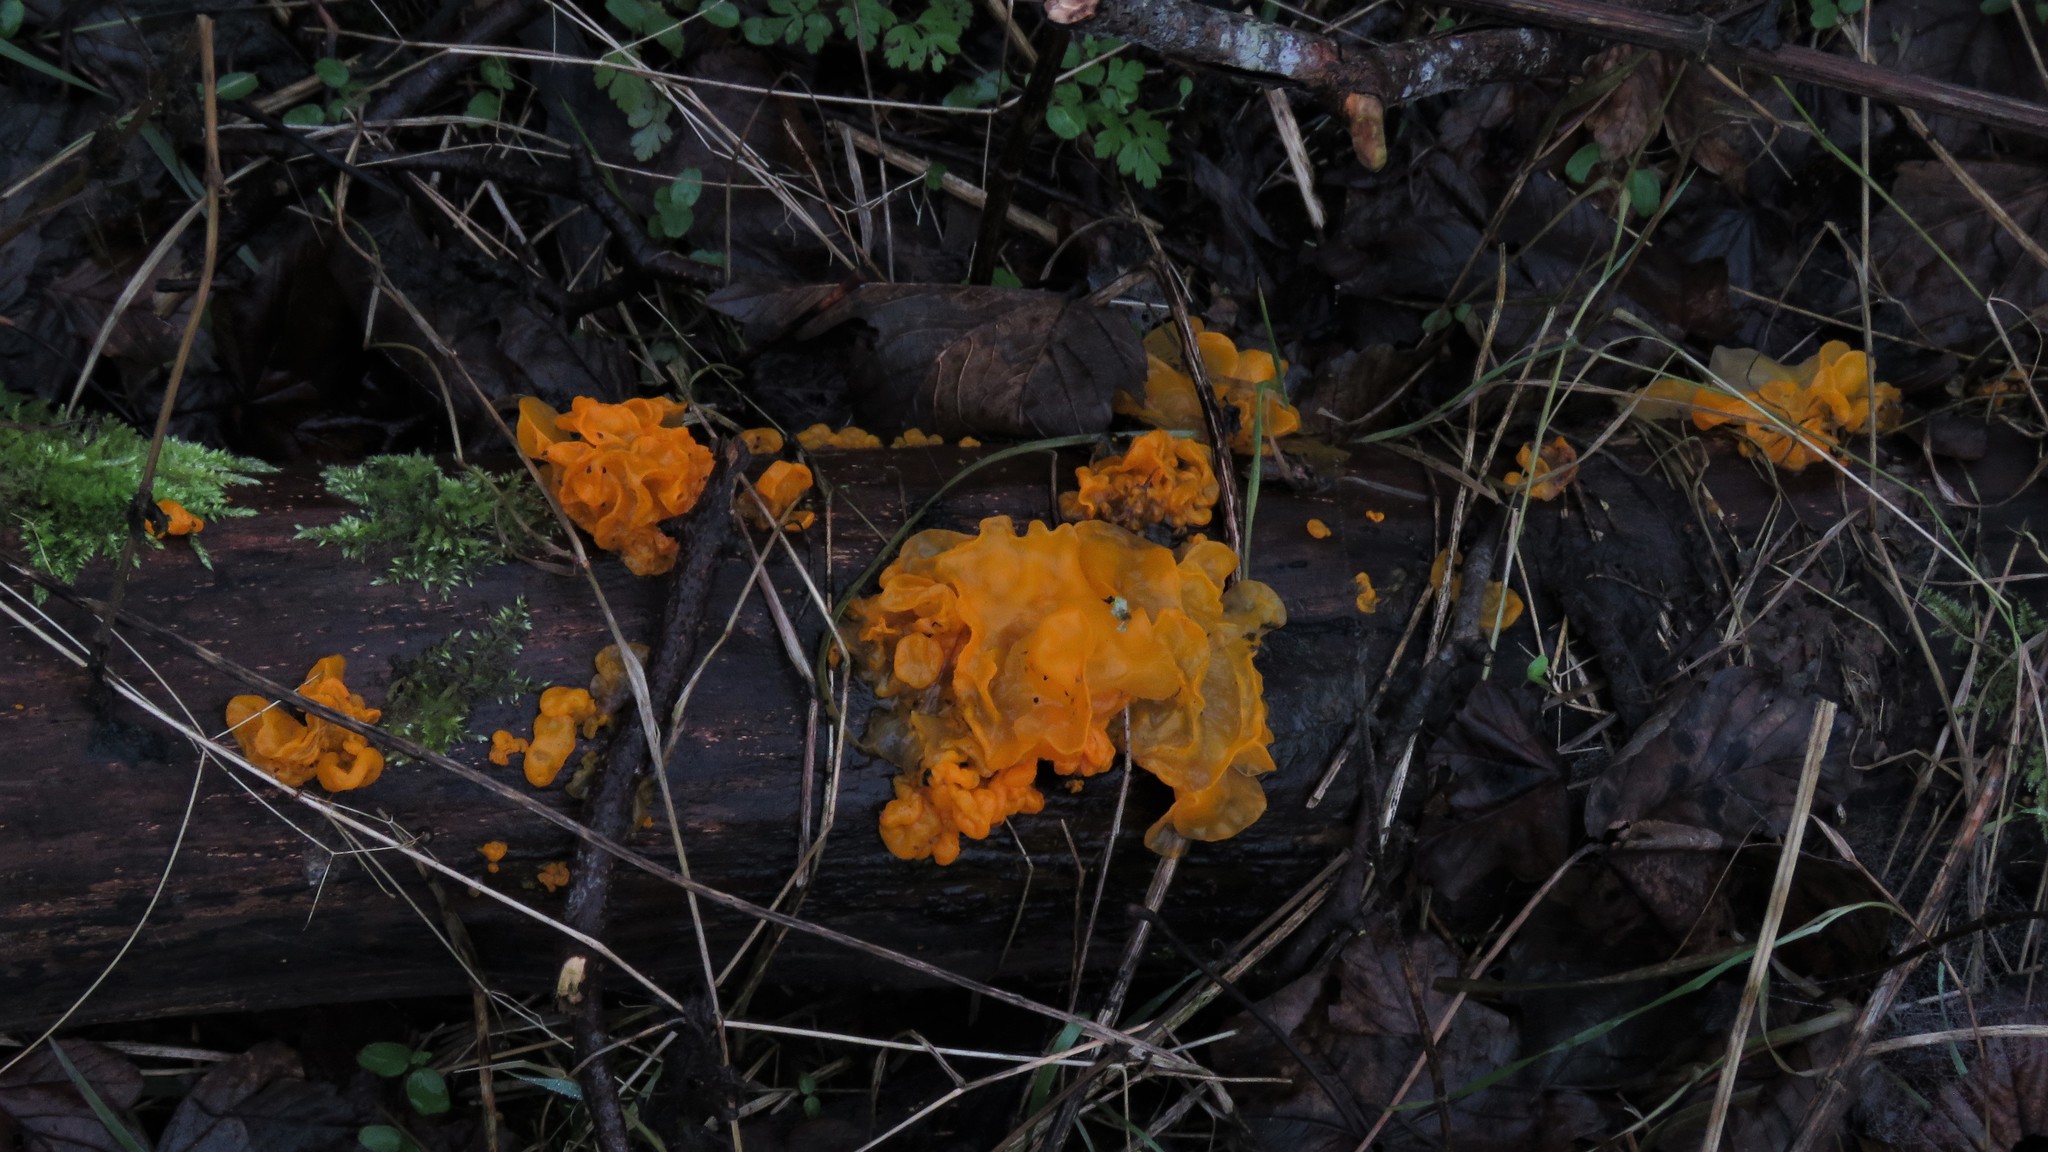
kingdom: Fungi
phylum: Basidiomycota
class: Tremellomycetes
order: Tremellales
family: Tremellaceae
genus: Tremella
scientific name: Tremella mesenterica
